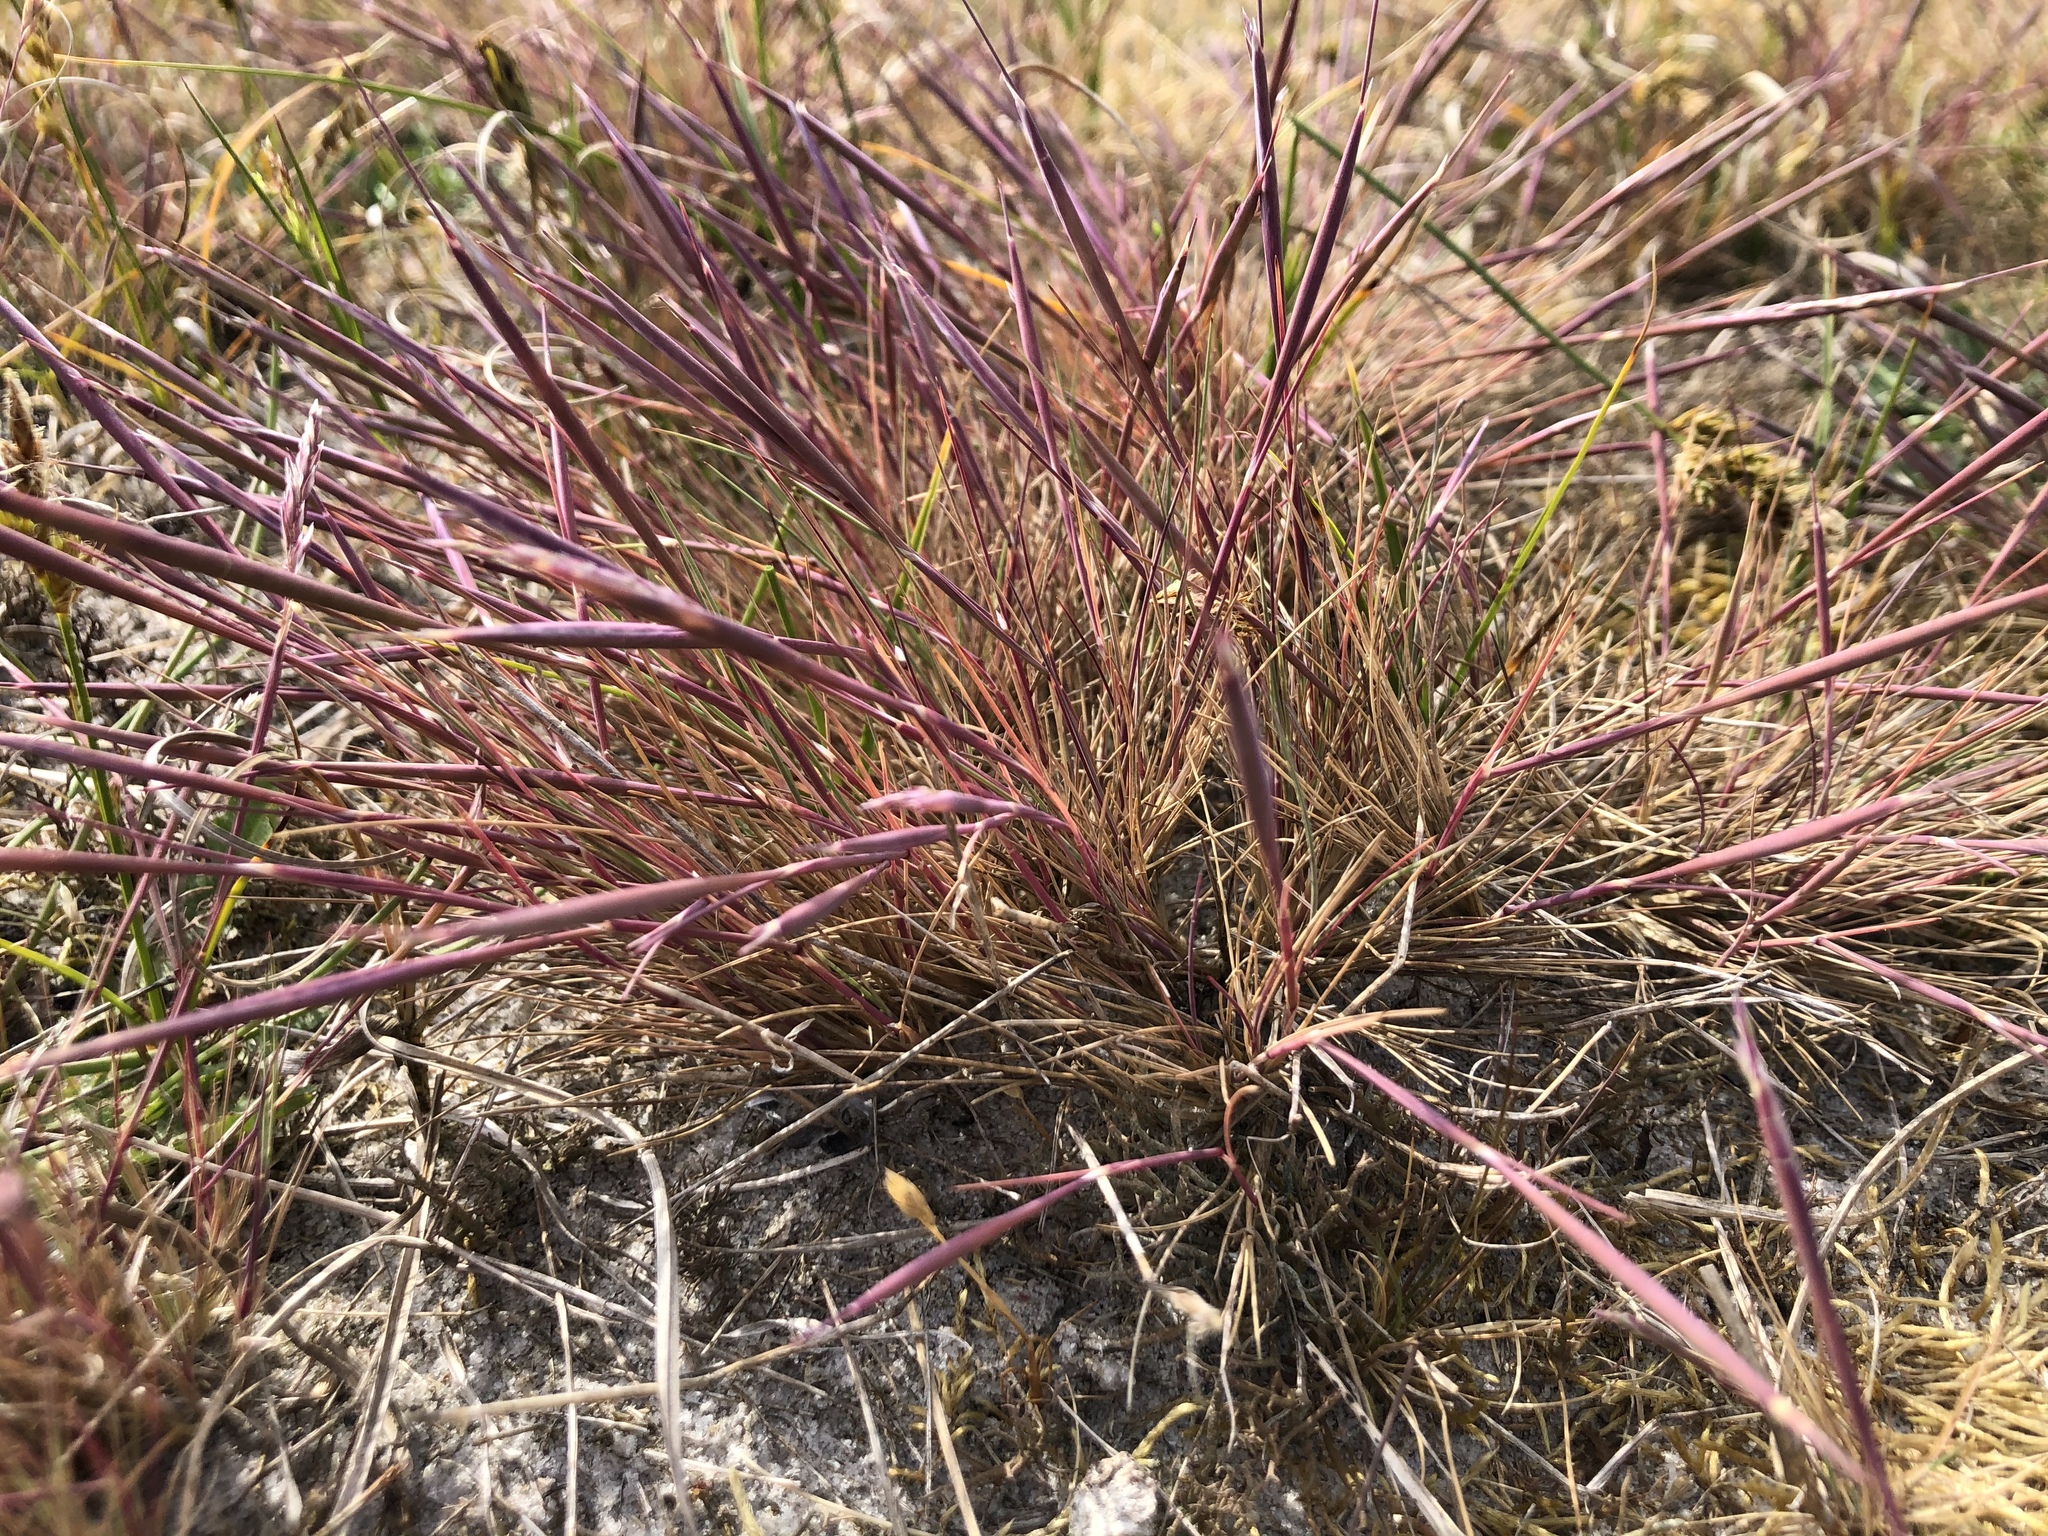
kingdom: Plantae
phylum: Tracheophyta
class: Liliopsida
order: Poales
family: Poaceae
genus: Corynephorus
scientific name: Corynephorus canescens
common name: Grey hair-grass
